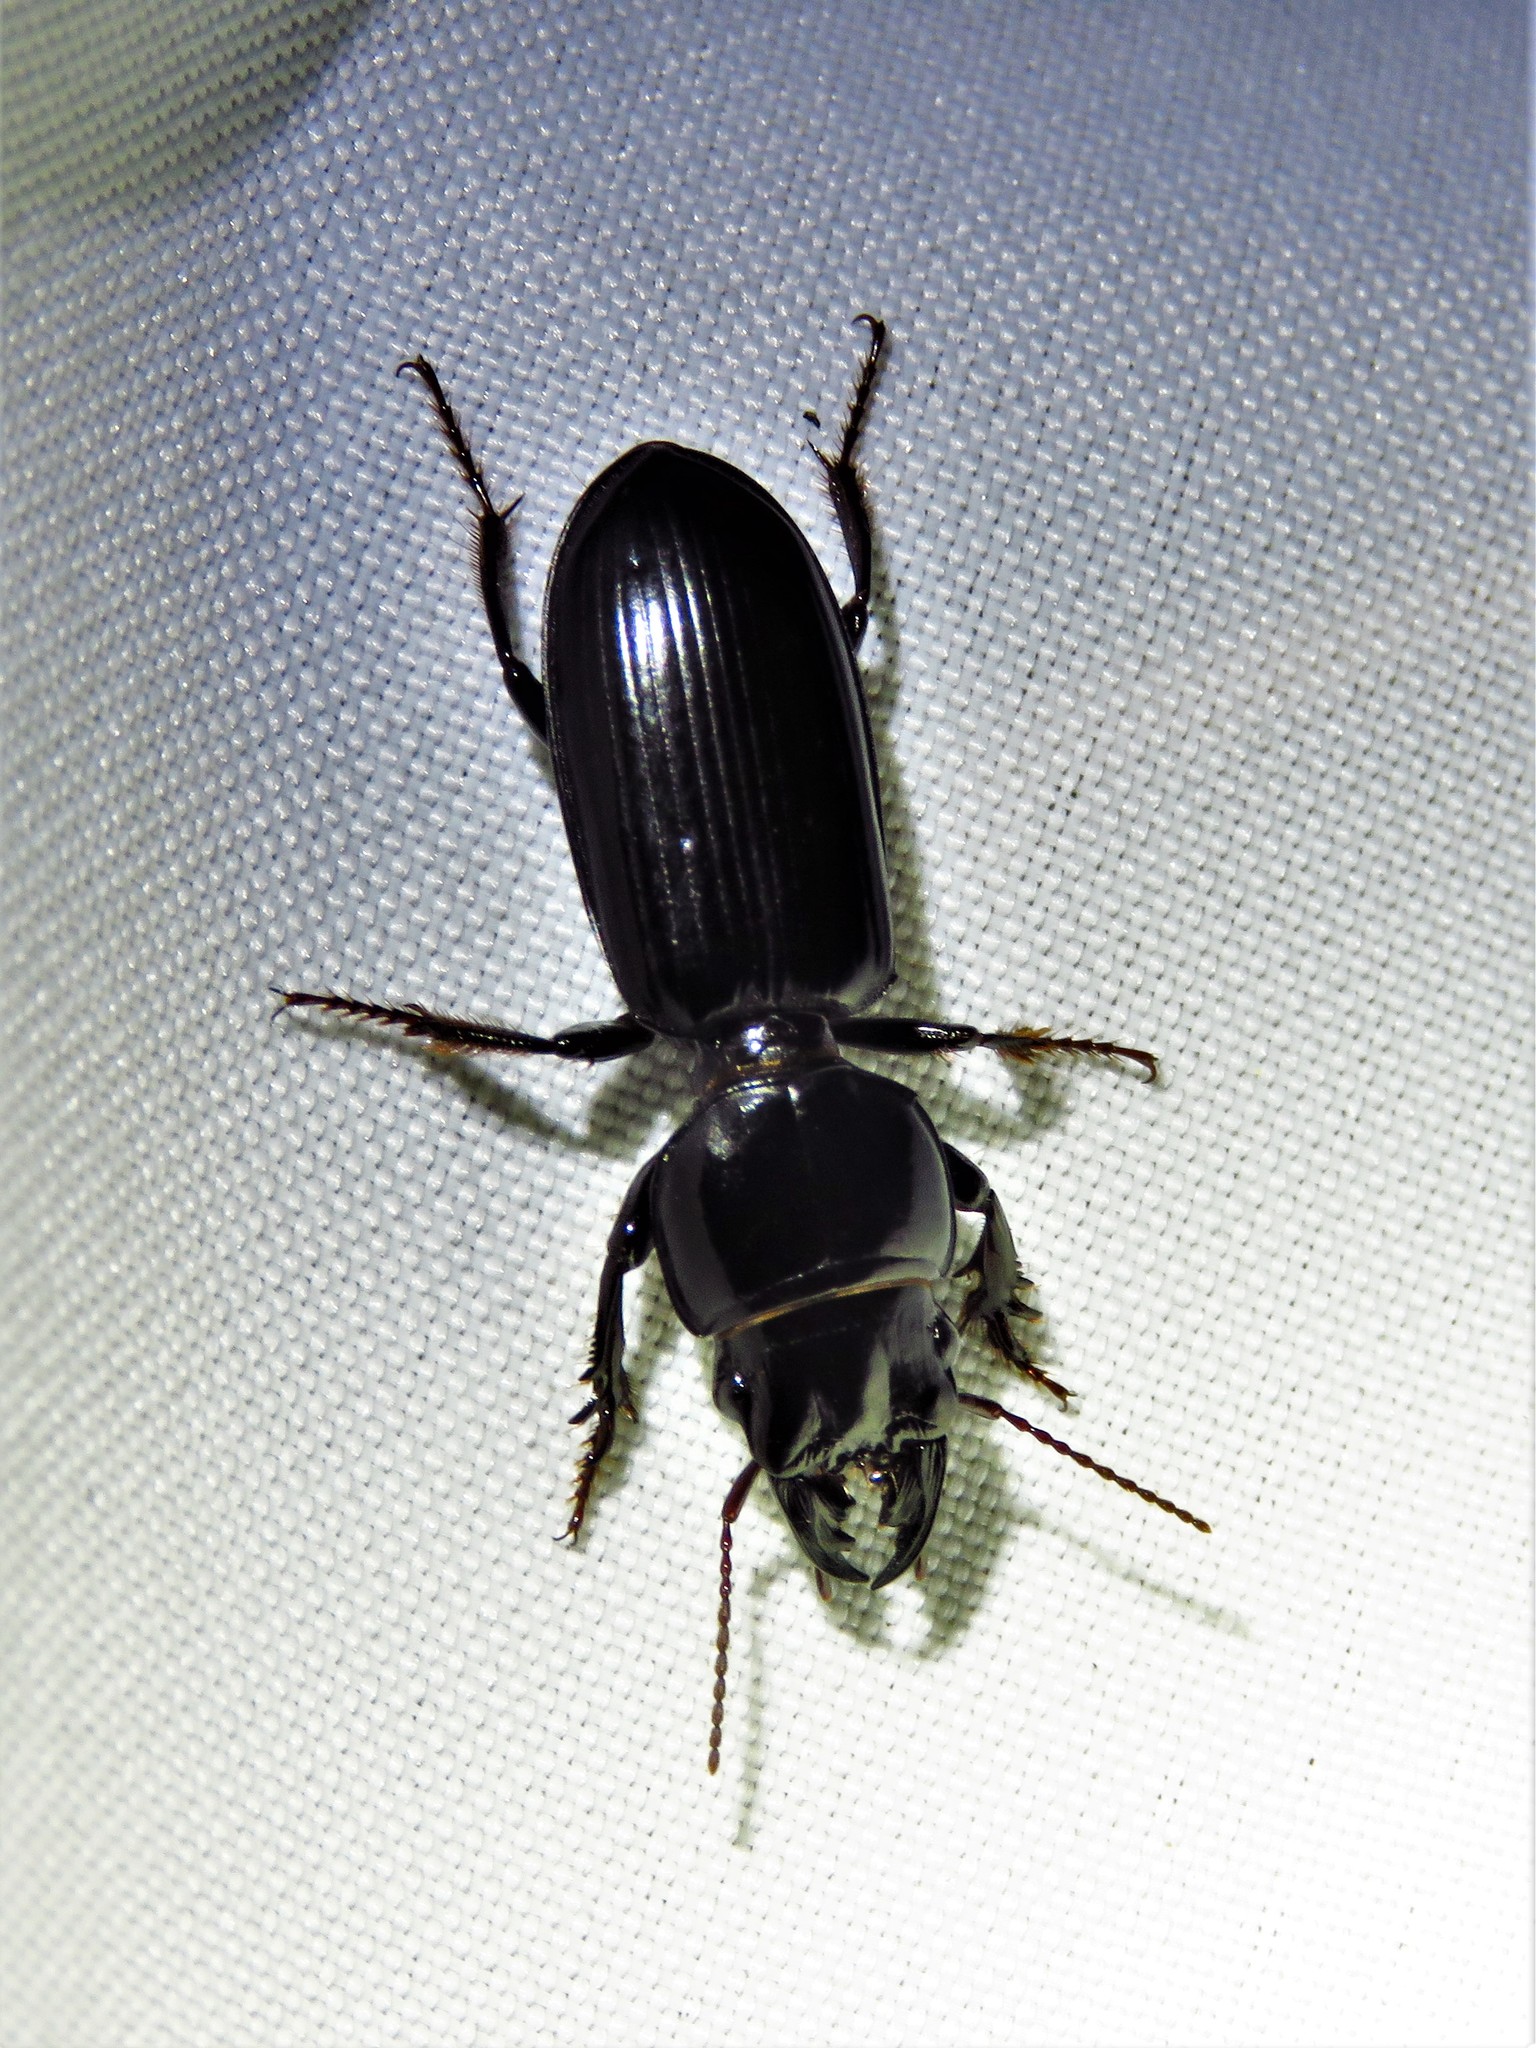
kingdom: Animalia
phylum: Arthropoda
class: Insecta
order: Coleoptera
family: Carabidae
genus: Scarites
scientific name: Scarites subterraneus
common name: Big-headed ground beetle
